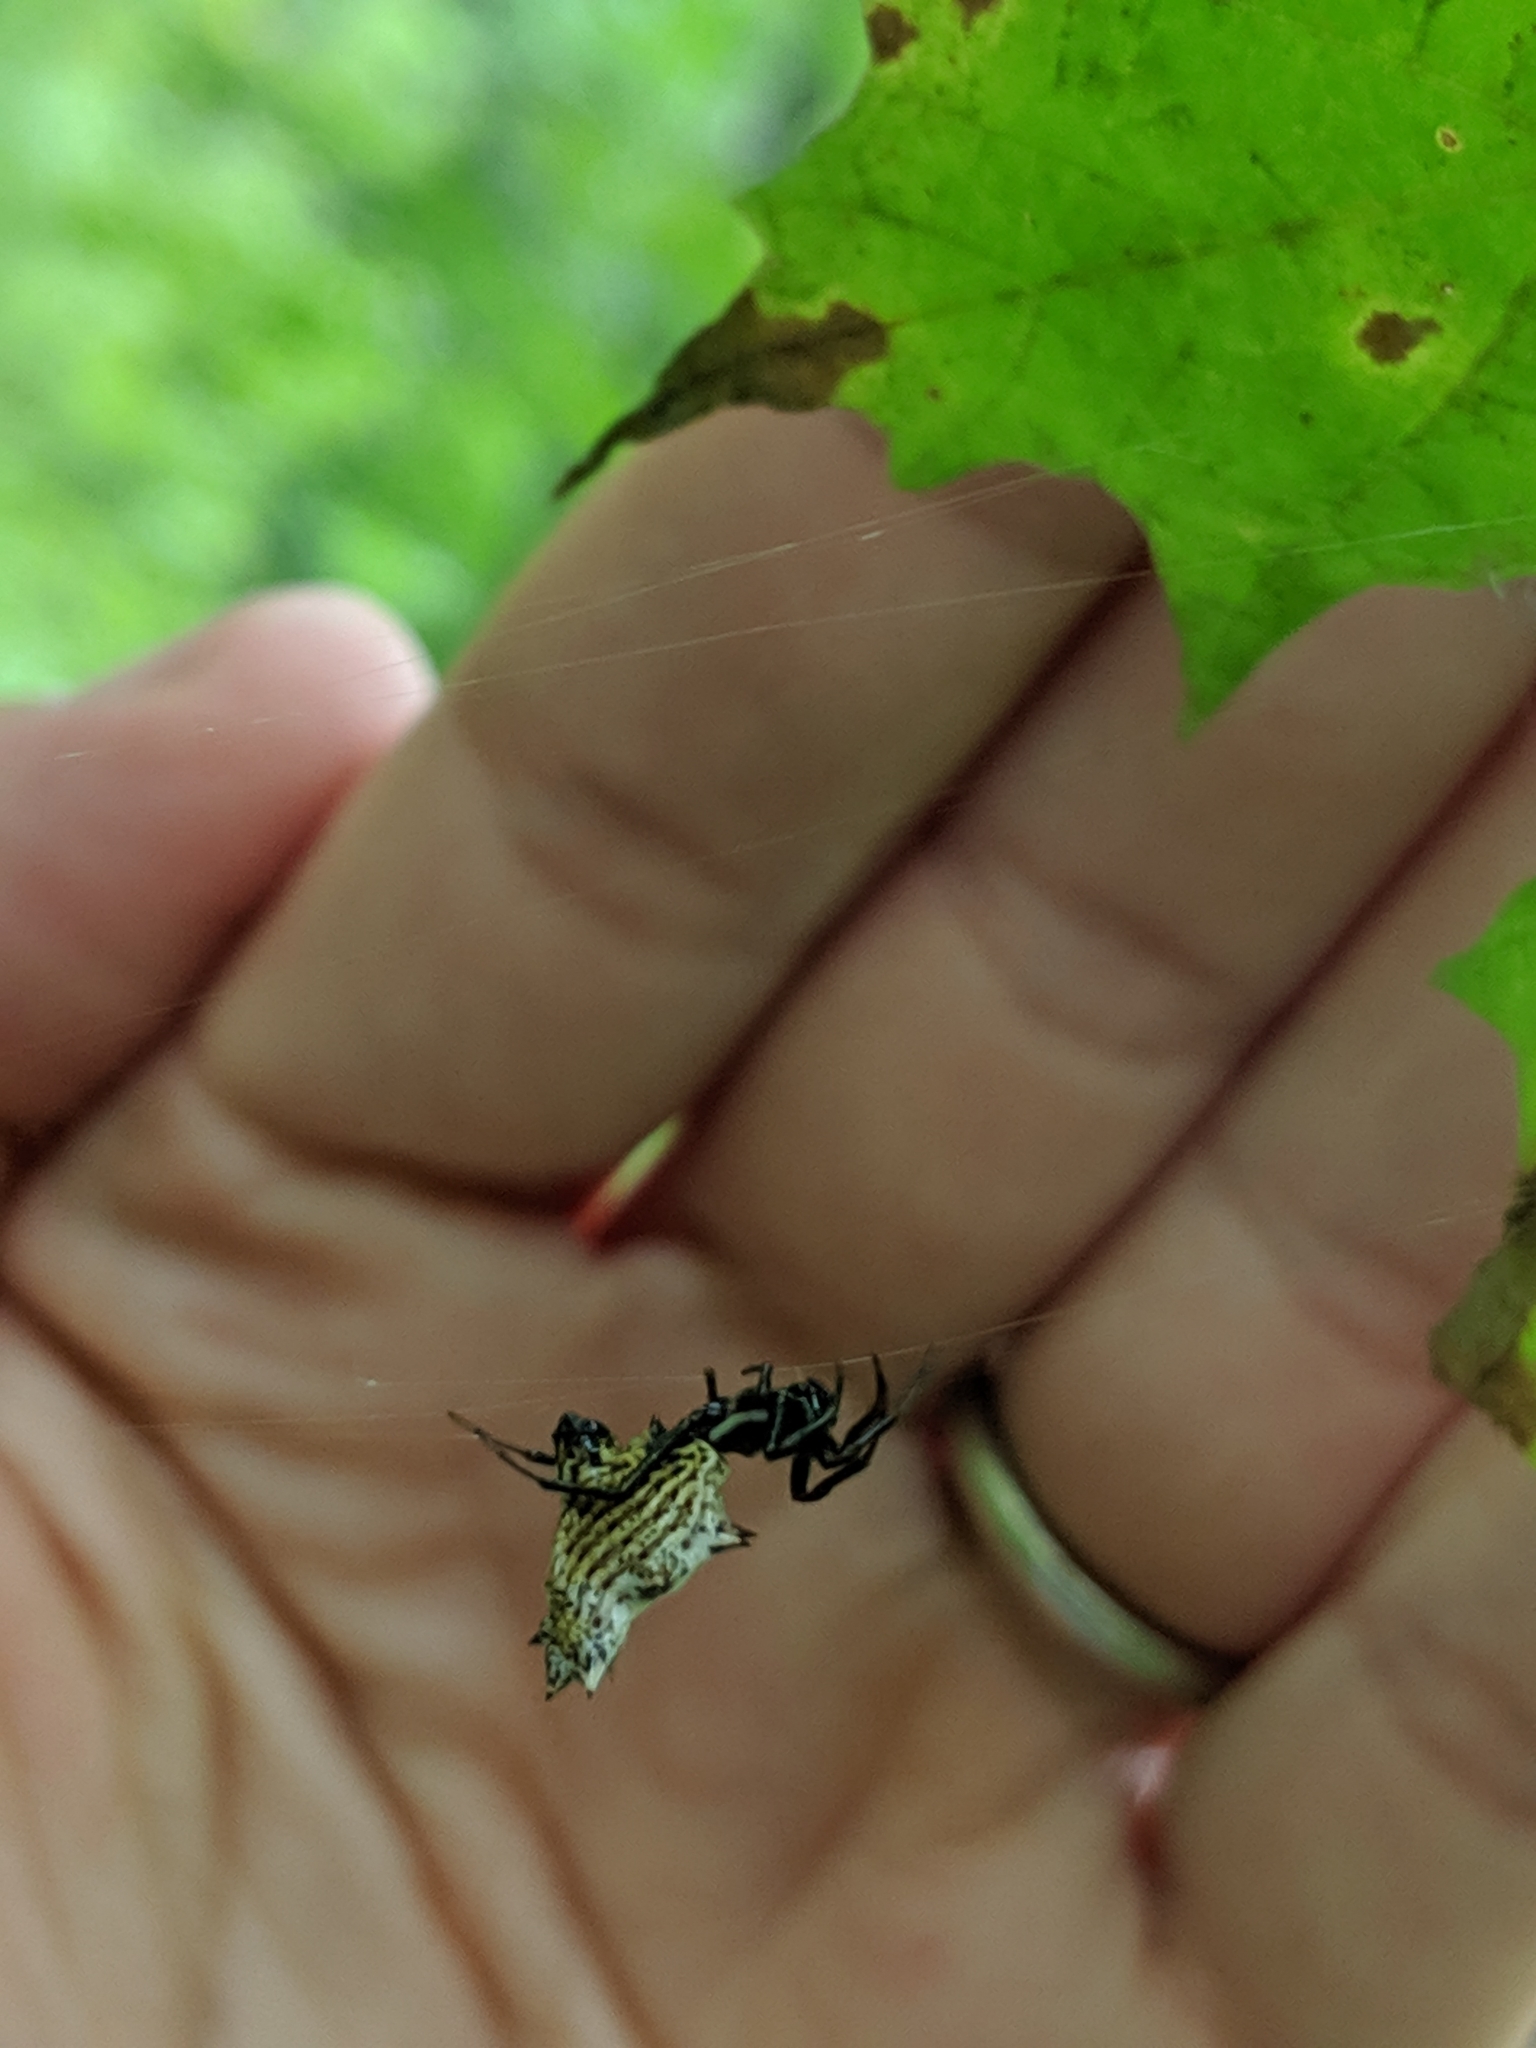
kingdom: Animalia
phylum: Arthropoda
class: Arachnida
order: Araneae
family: Araneidae
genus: Micrathena
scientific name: Micrathena gracilis
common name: Orb weavers
